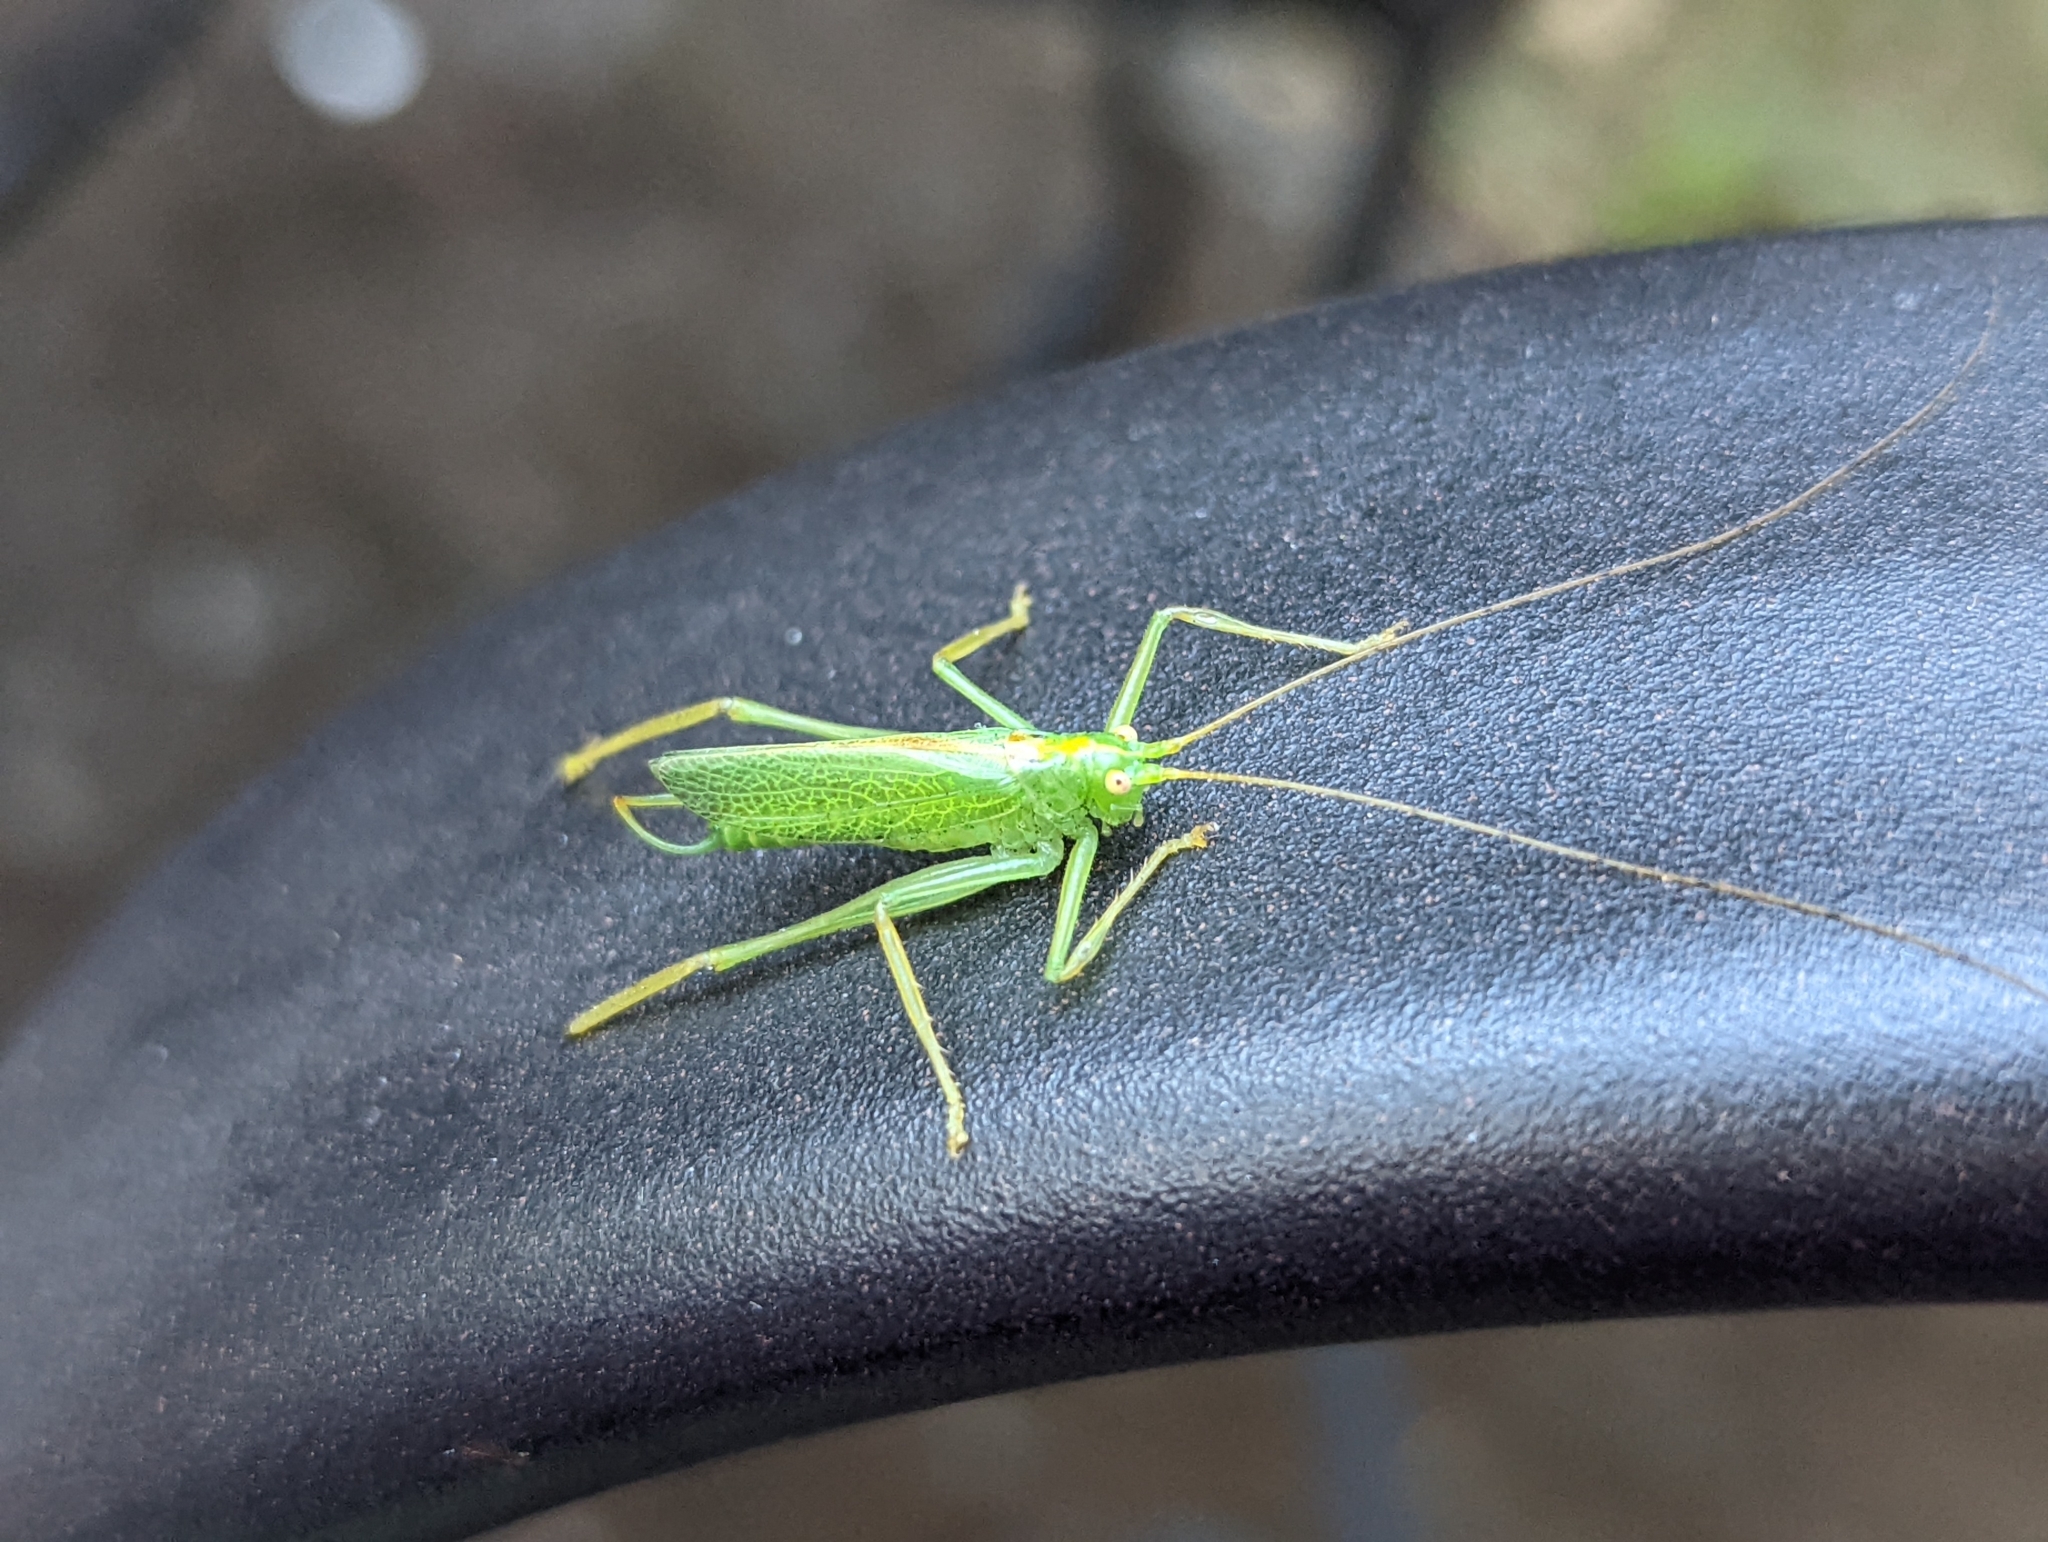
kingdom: Animalia
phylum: Arthropoda
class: Insecta
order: Orthoptera
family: Tettigoniidae
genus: Meconema
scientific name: Meconema thalassinum
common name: Oak bush-cricket
